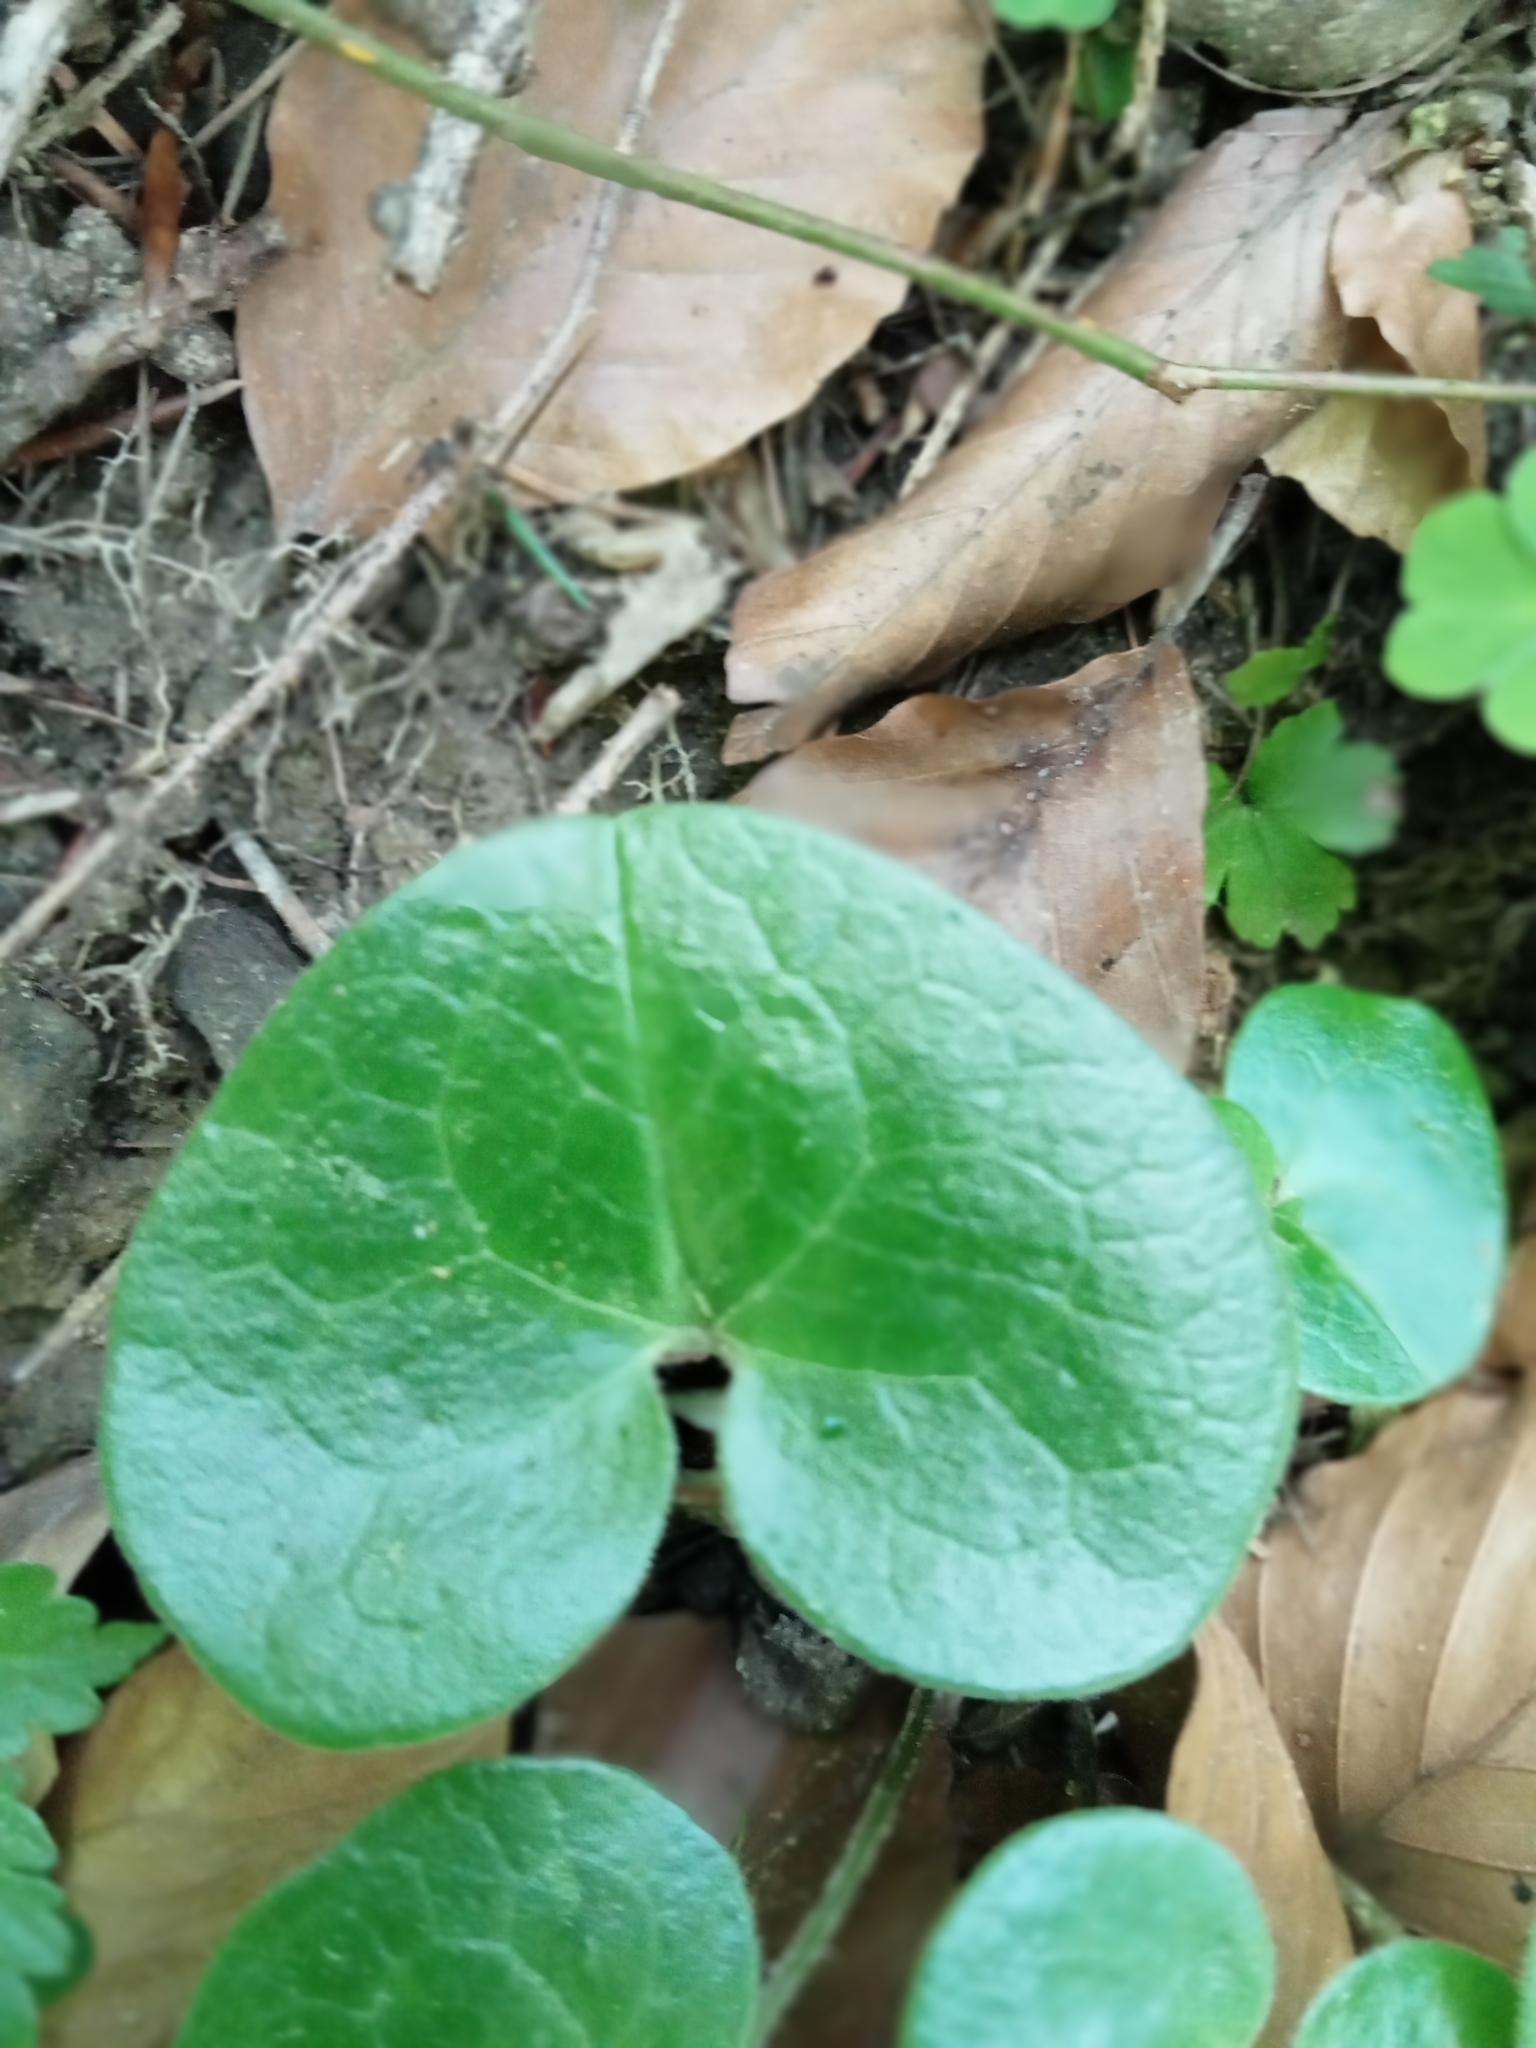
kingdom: Plantae
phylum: Tracheophyta
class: Magnoliopsida
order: Piperales
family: Aristolochiaceae
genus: Asarum
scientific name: Asarum europaeum
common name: Asarabacca
